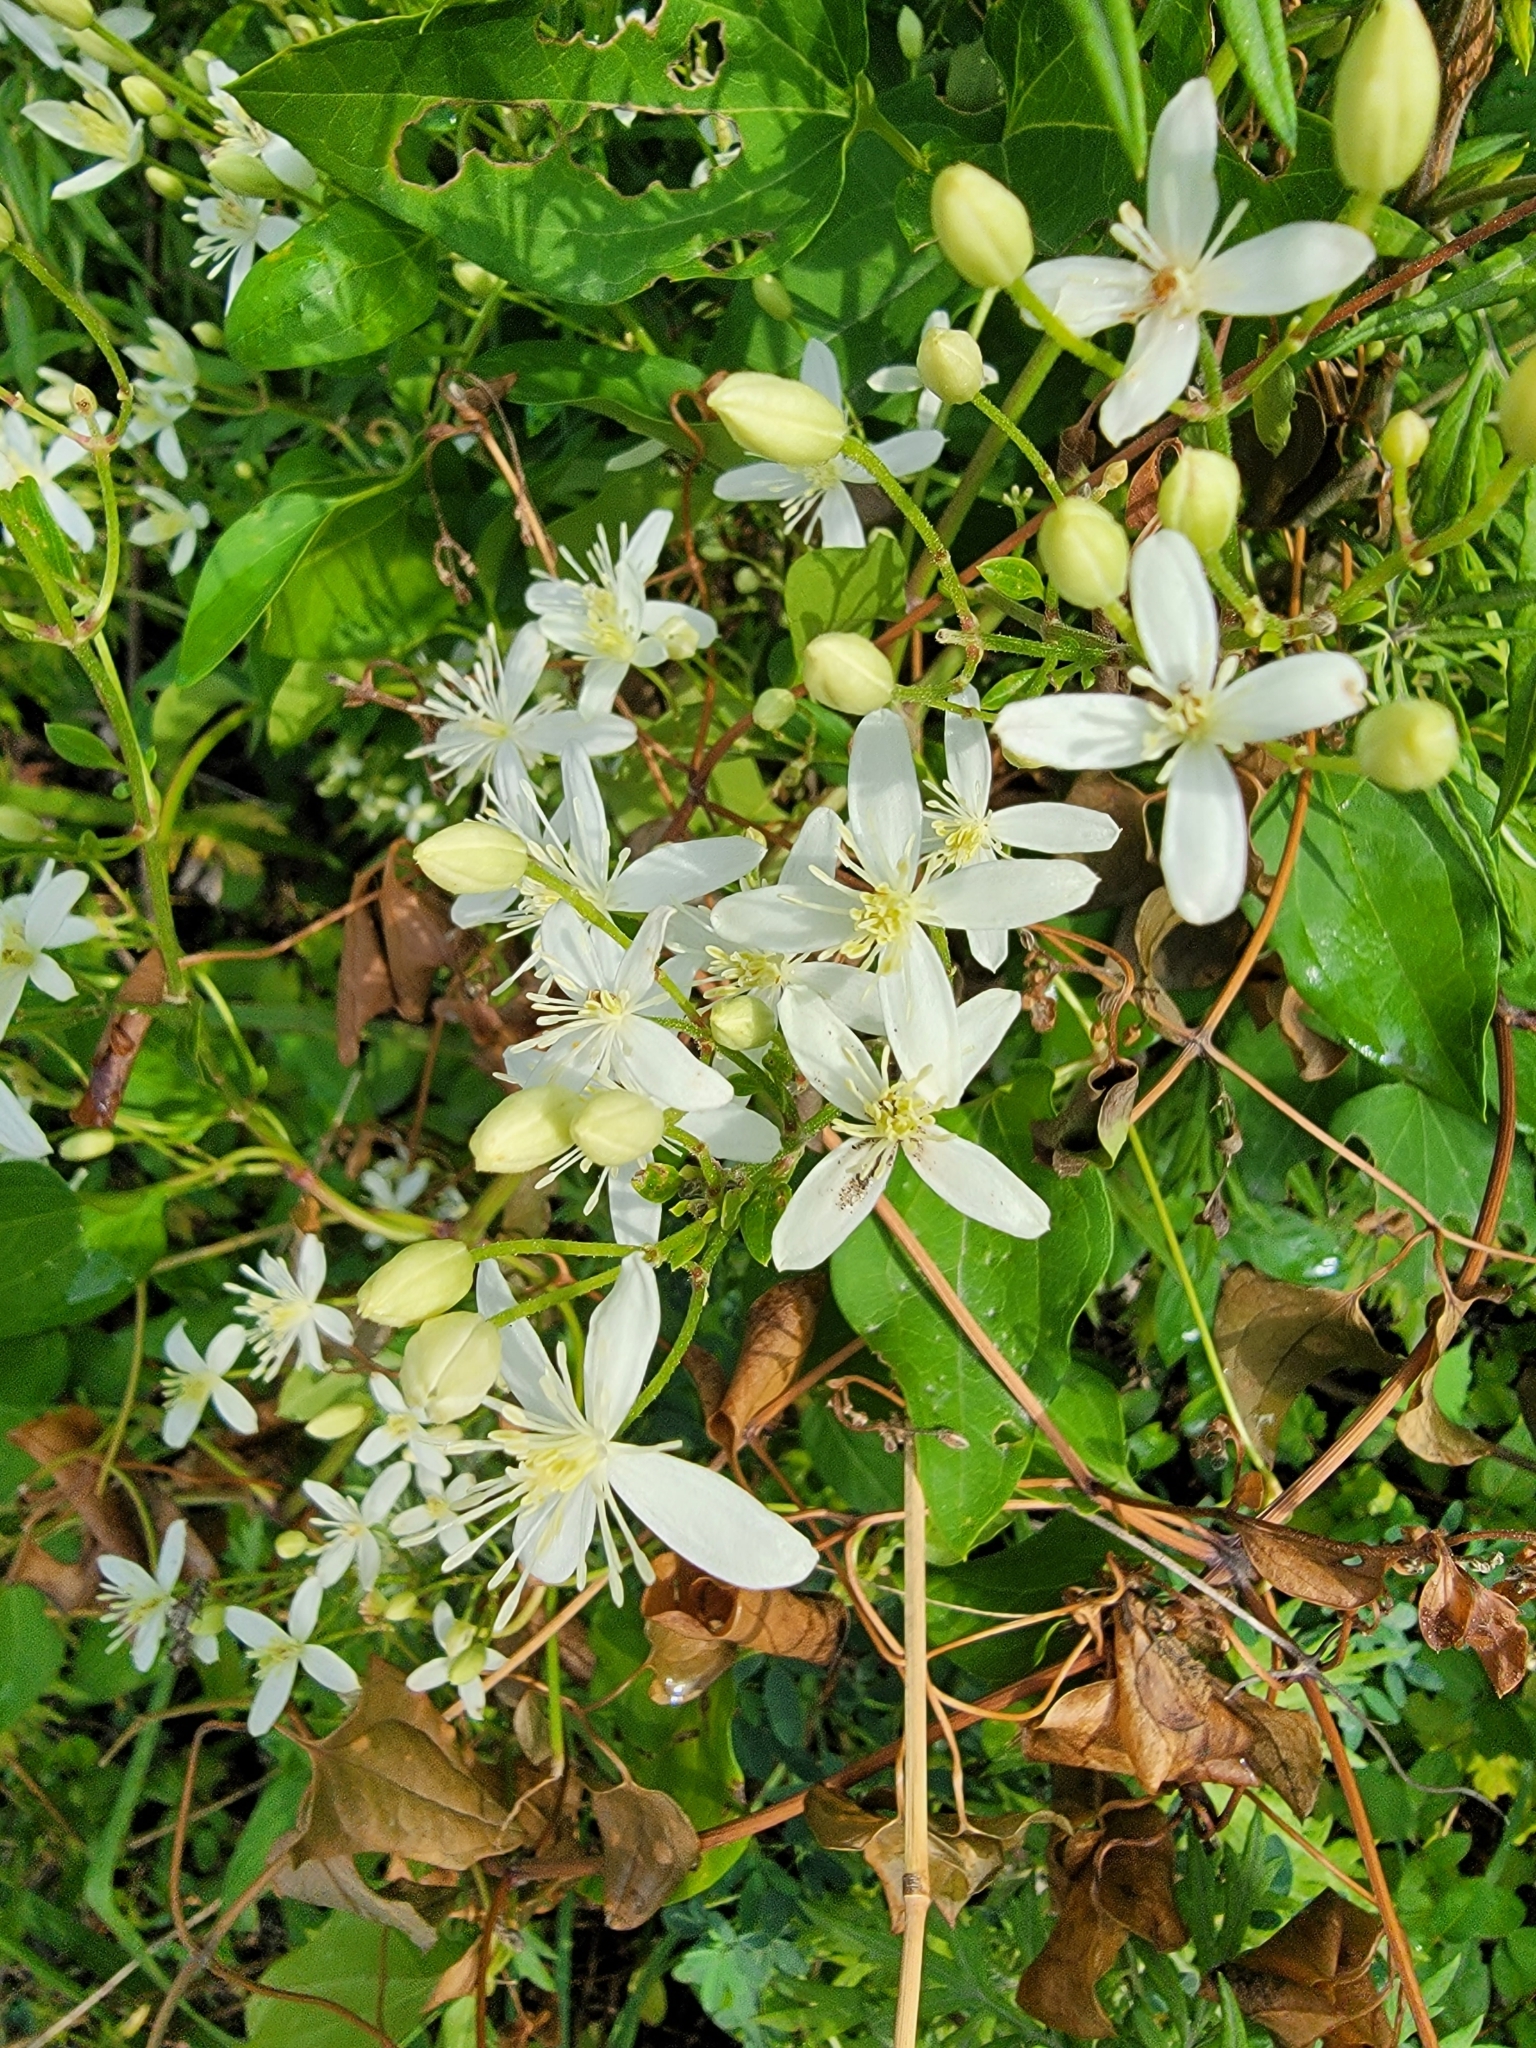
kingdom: Plantae
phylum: Tracheophyta
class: Magnoliopsida
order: Ranunculales
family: Ranunculaceae
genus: Clematis
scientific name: Clematis terniflora
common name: Sweet autumn clematis
